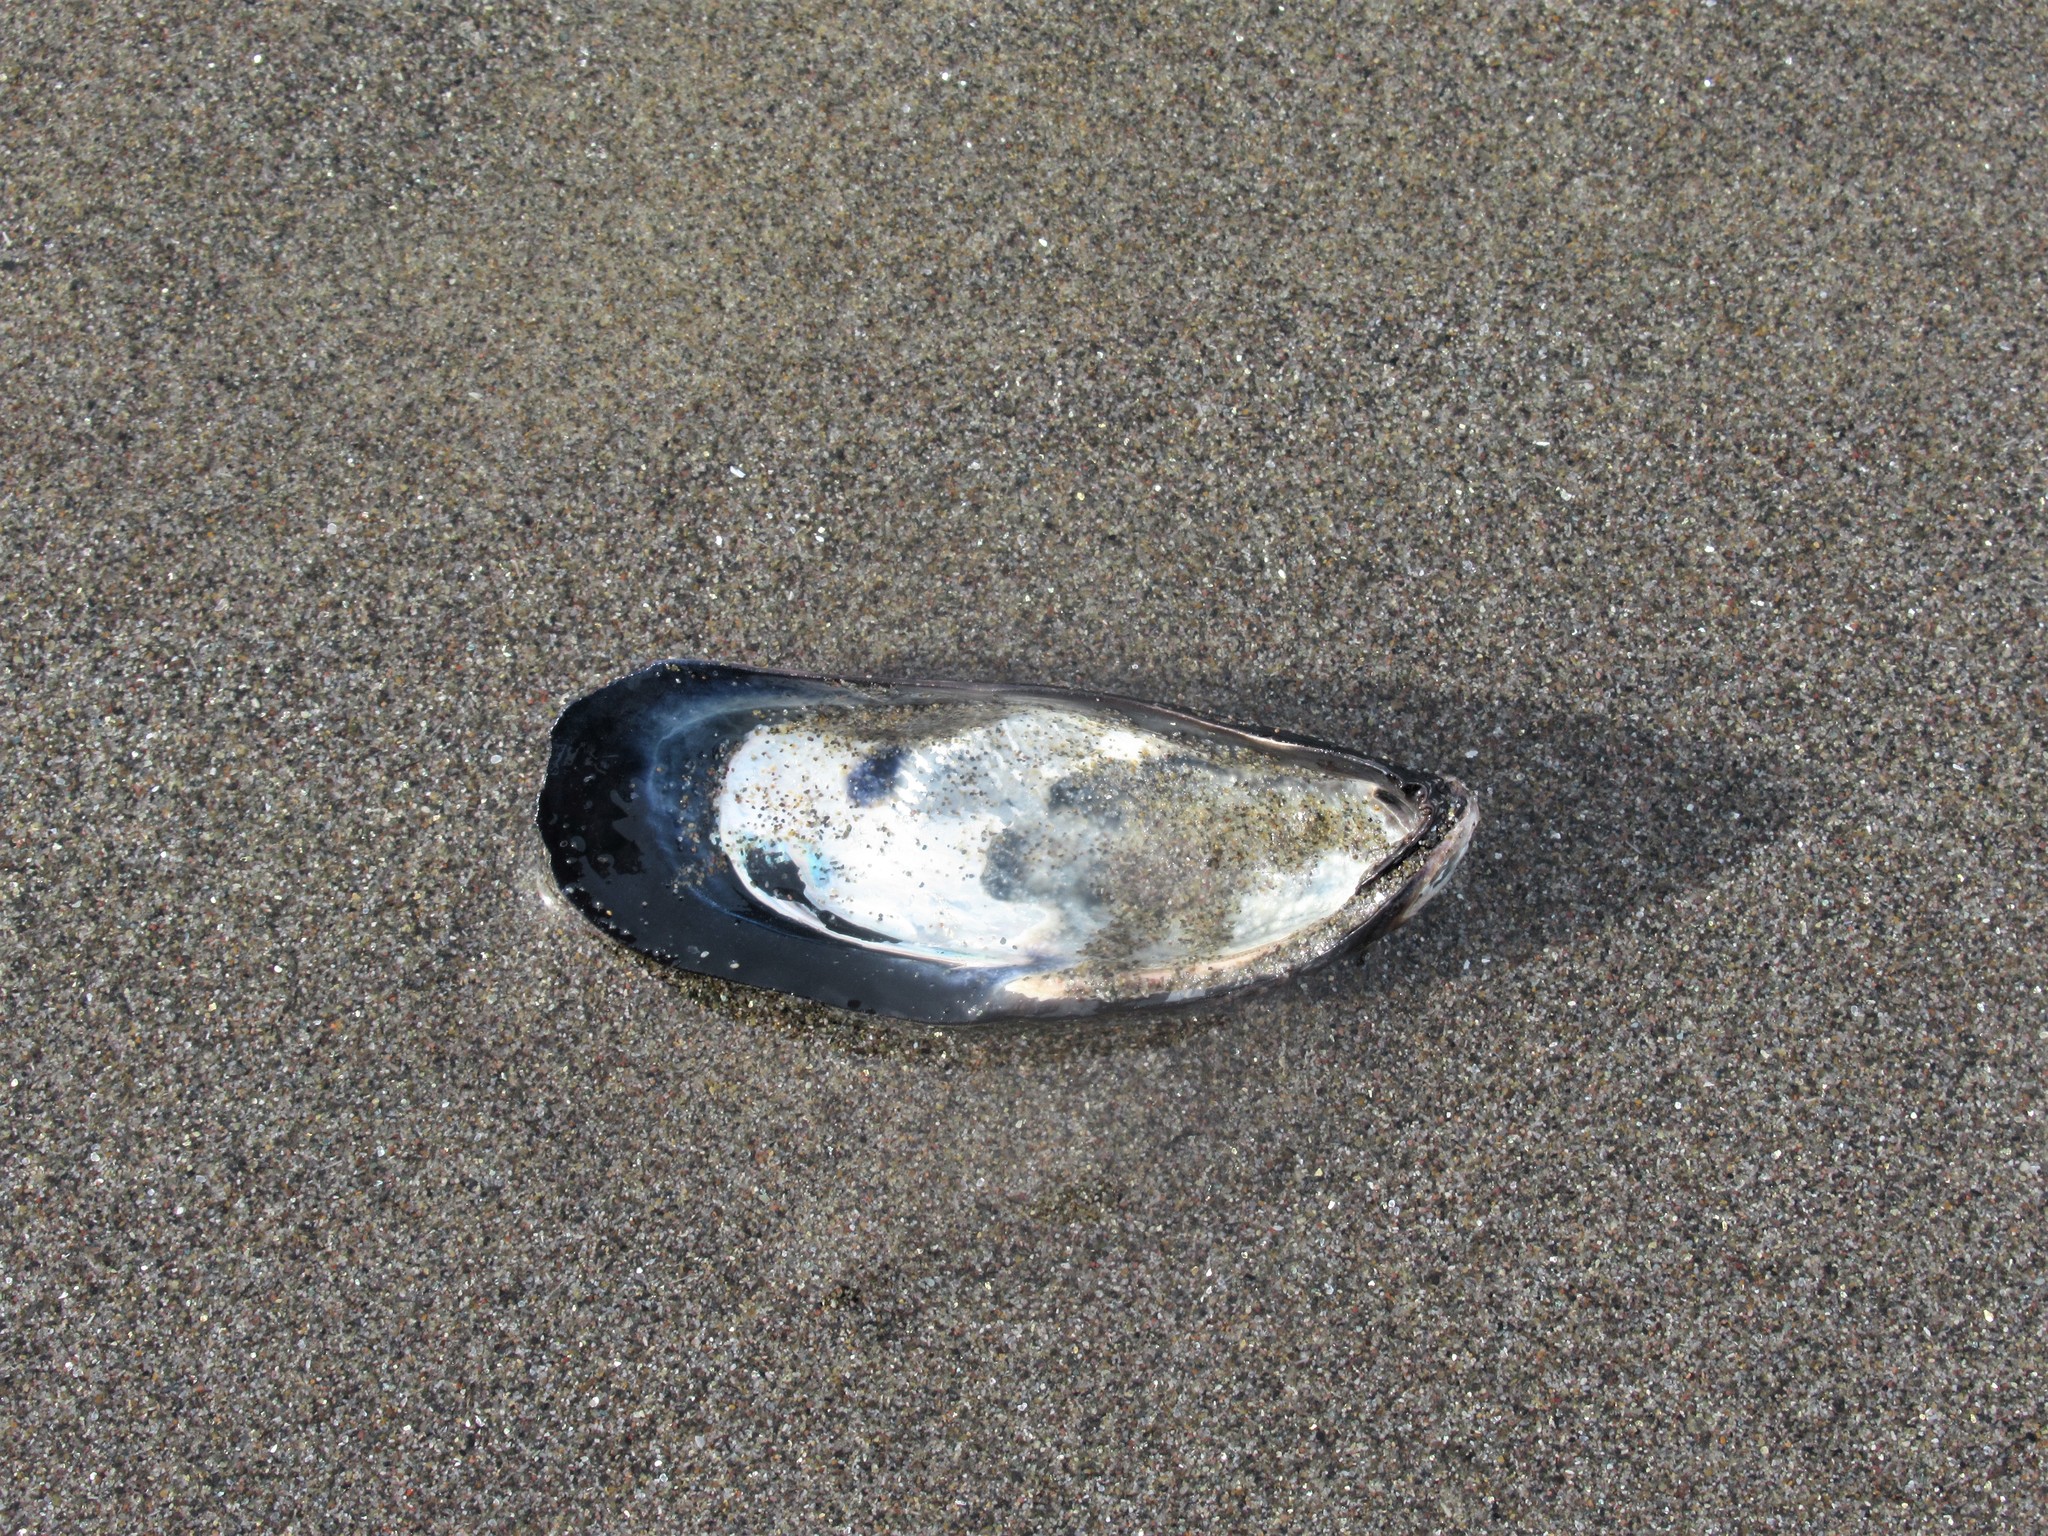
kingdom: Animalia
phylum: Mollusca
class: Bivalvia
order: Mytilida
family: Mytilidae
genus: Mytilus
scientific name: Mytilus californianus
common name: California mussel
